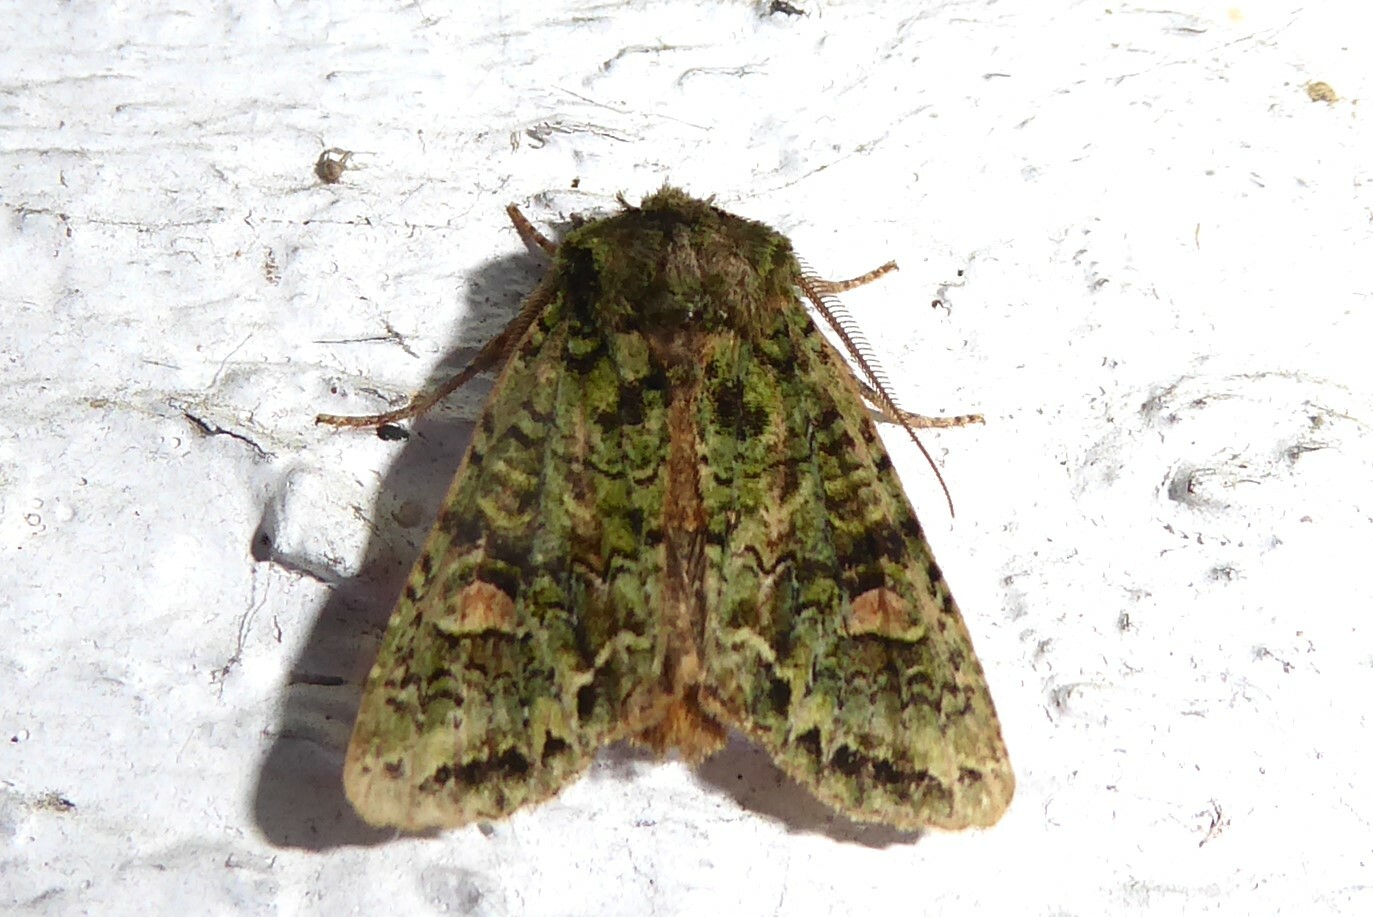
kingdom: Animalia
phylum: Arthropoda
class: Insecta
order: Lepidoptera
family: Noctuidae
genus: Ichneutica
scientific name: Ichneutica
